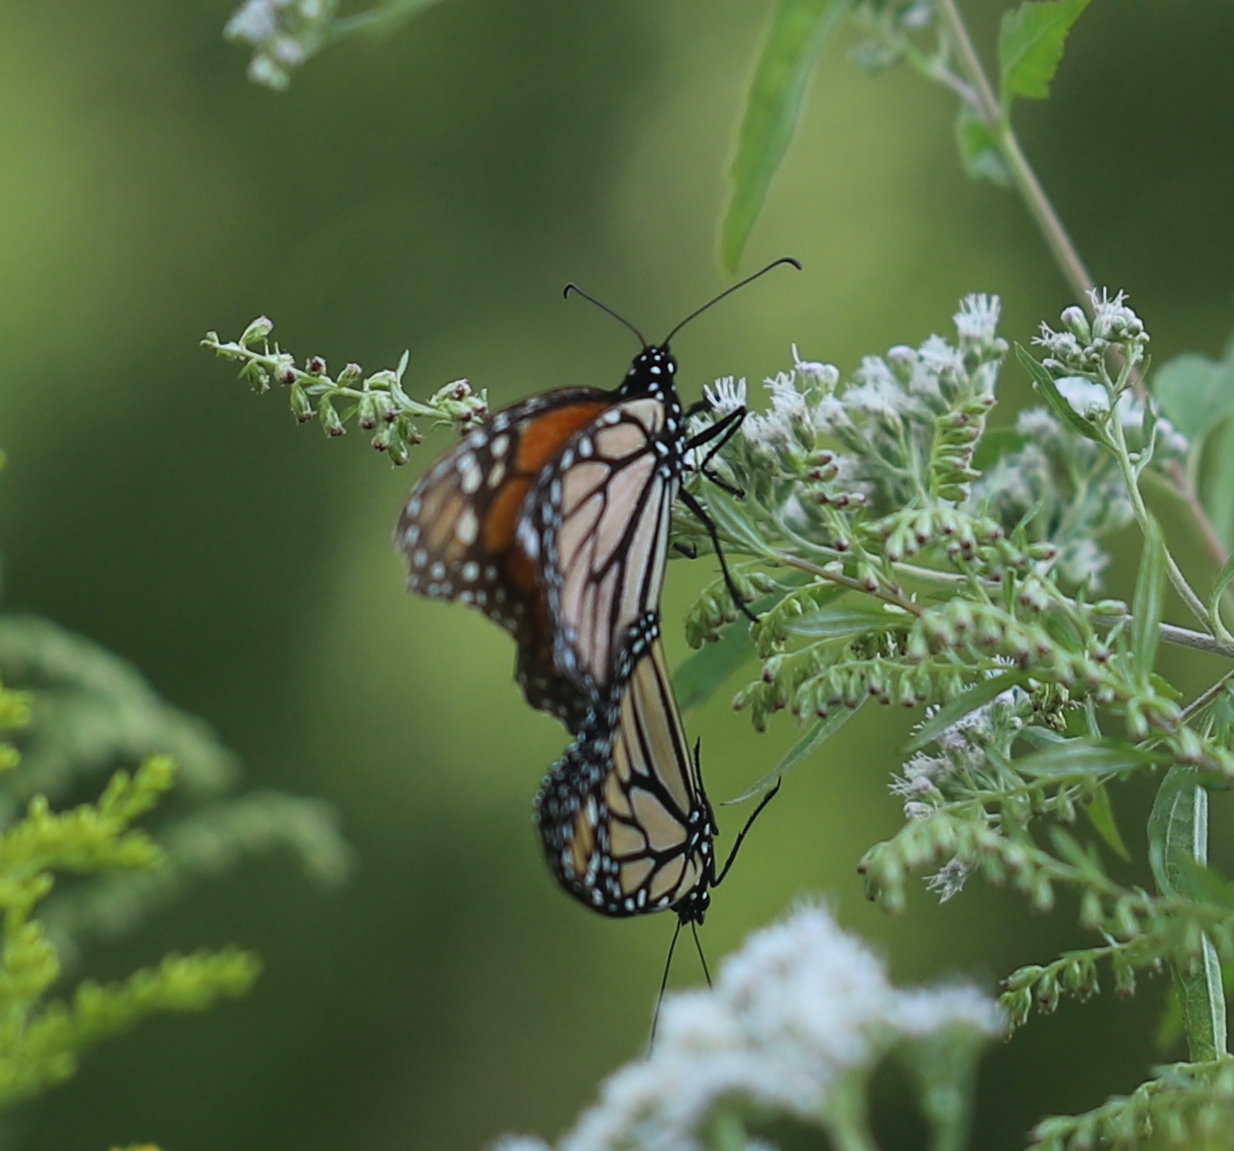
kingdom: Animalia
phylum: Arthropoda
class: Insecta
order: Lepidoptera
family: Nymphalidae
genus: Danaus
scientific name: Danaus plexippus
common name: Monarch
